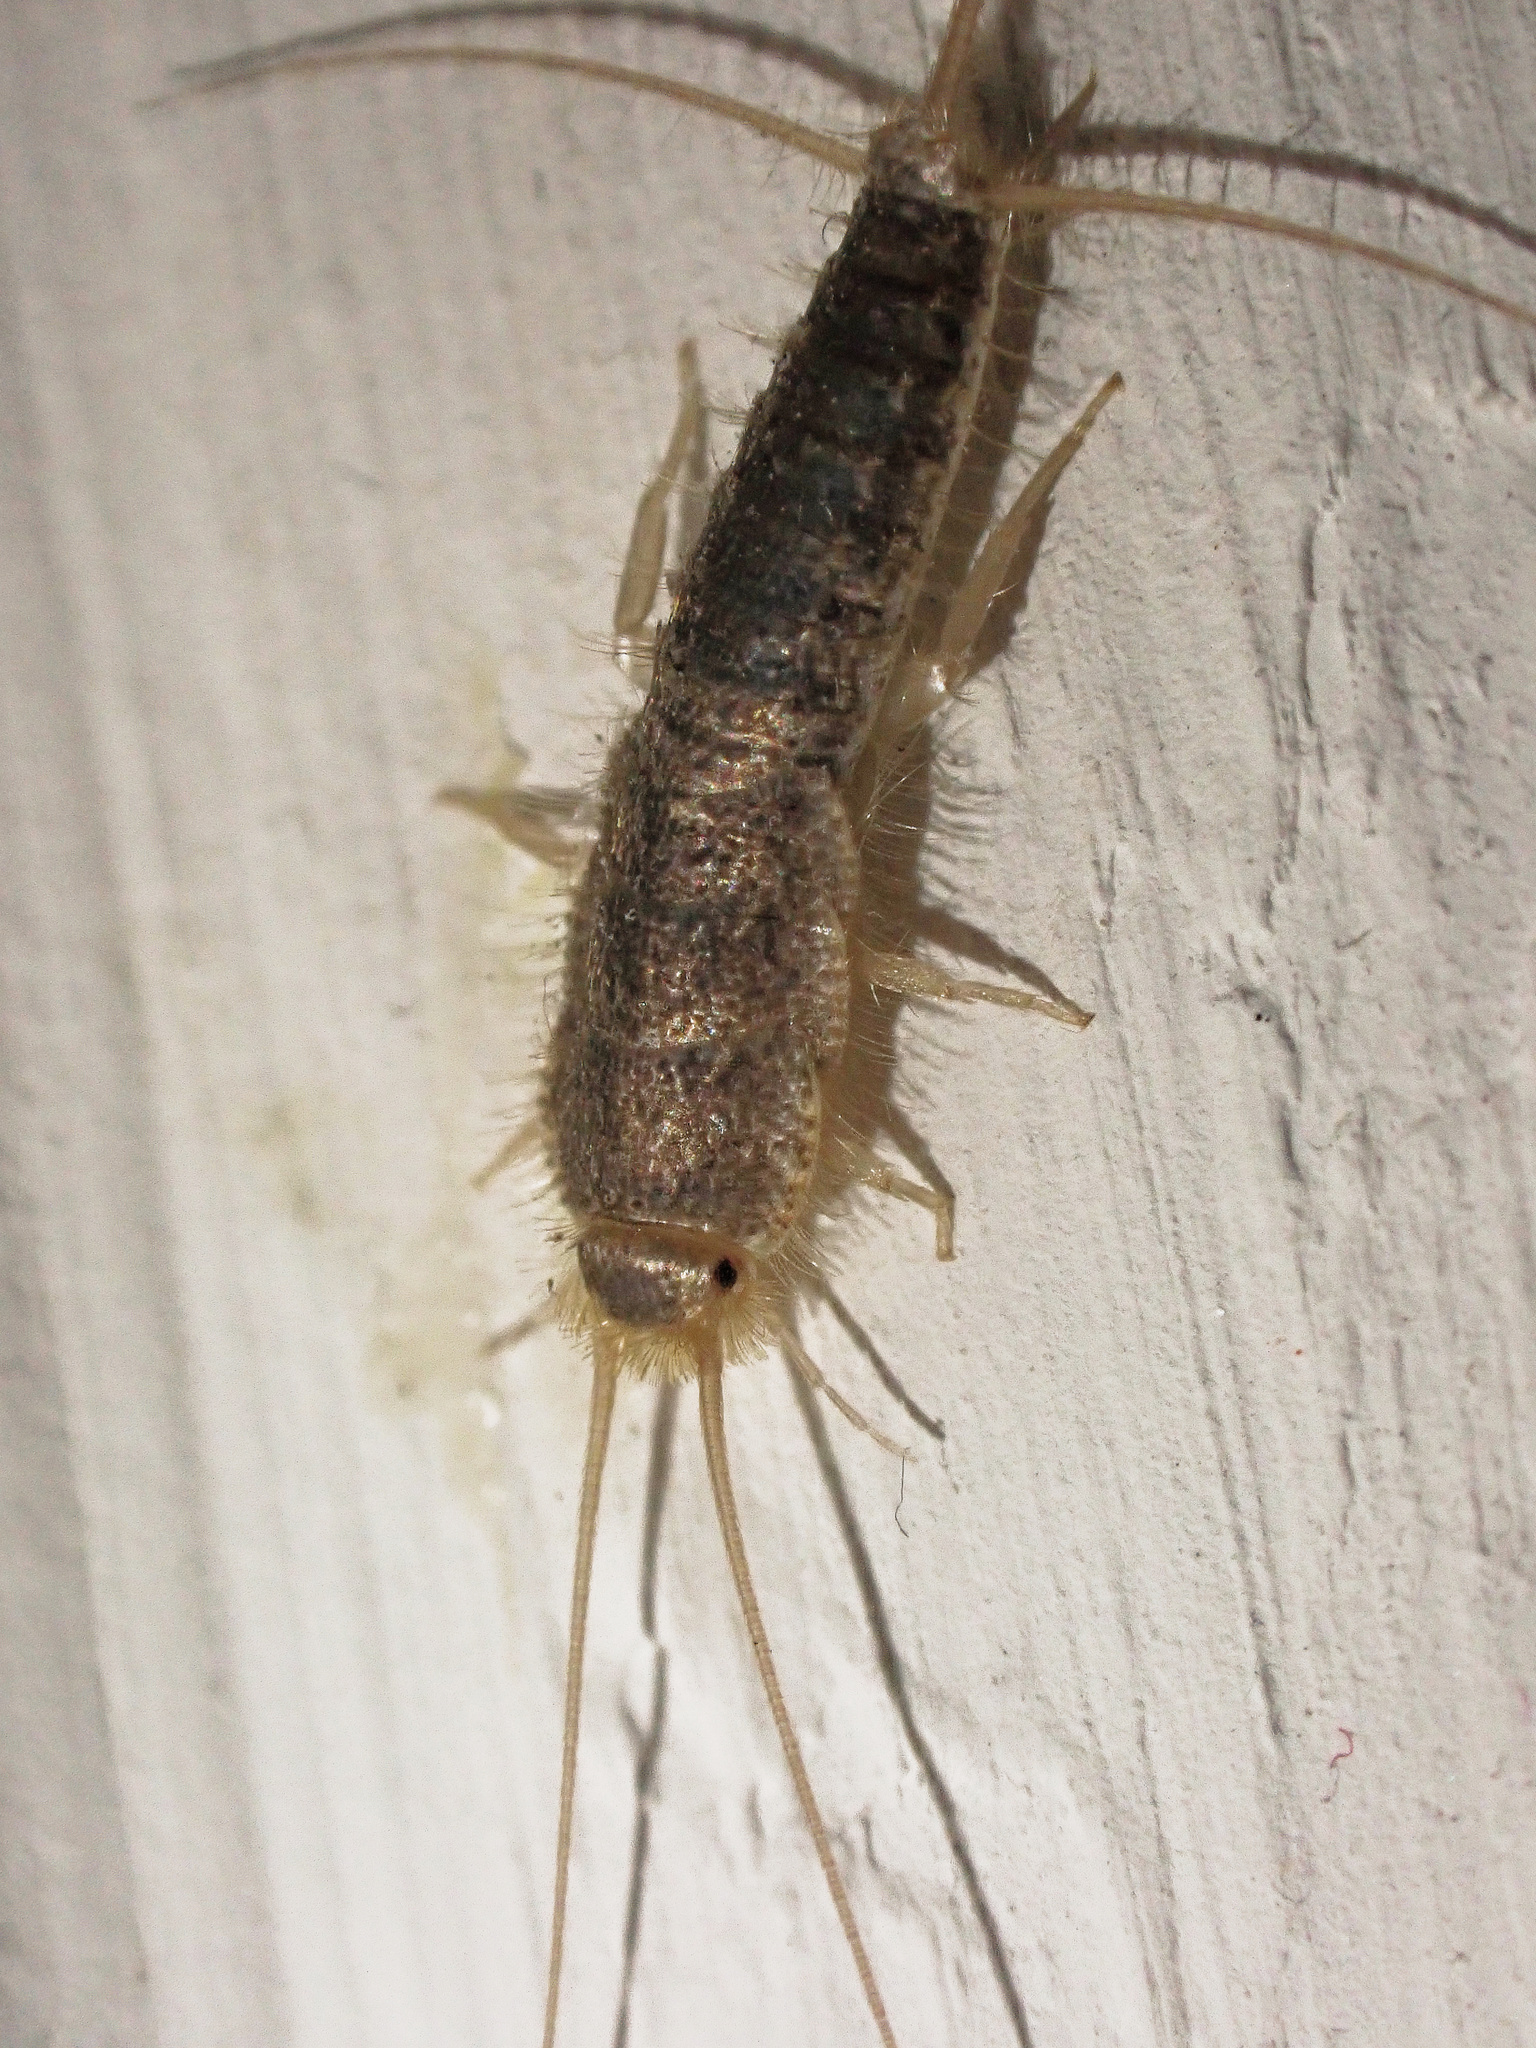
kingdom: Animalia
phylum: Arthropoda
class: Insecta
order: Zygentoma
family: Lepismatidae
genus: Ctenolepisma
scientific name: Ctenolepisma longicaudatum
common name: Silverfish
